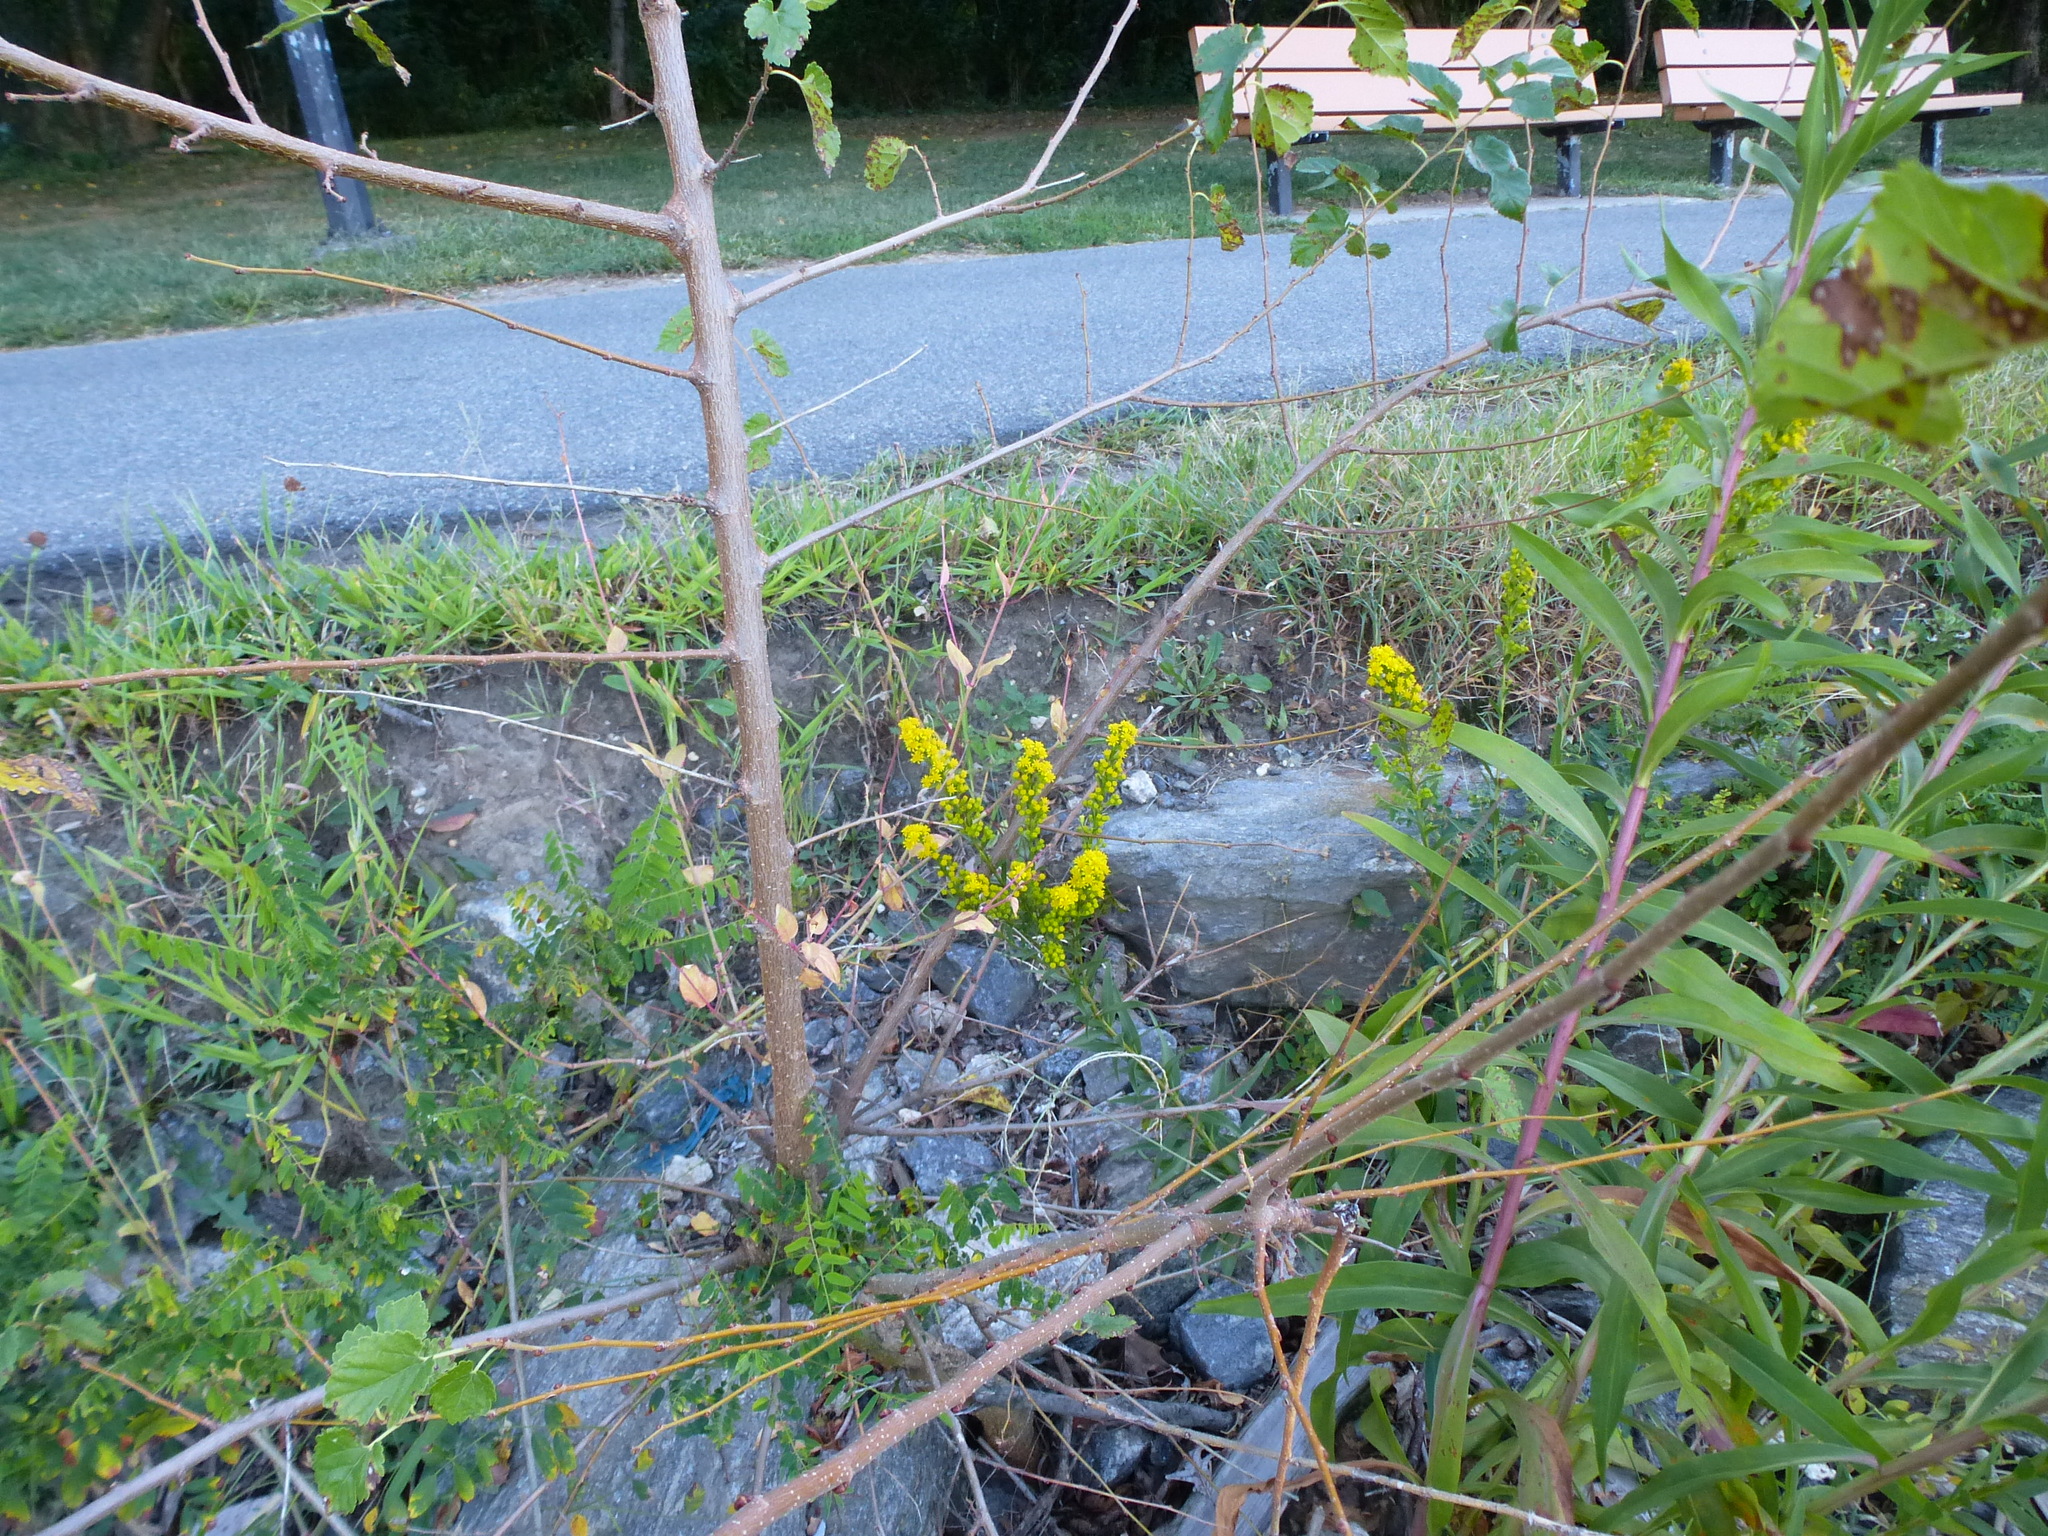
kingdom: Plantae
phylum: Tracheophyta
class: Magnoliopsida
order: Asterales
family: Asteraceae
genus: Solidago
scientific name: Solidago sempervirens
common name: Salt-marsh goldenrod
